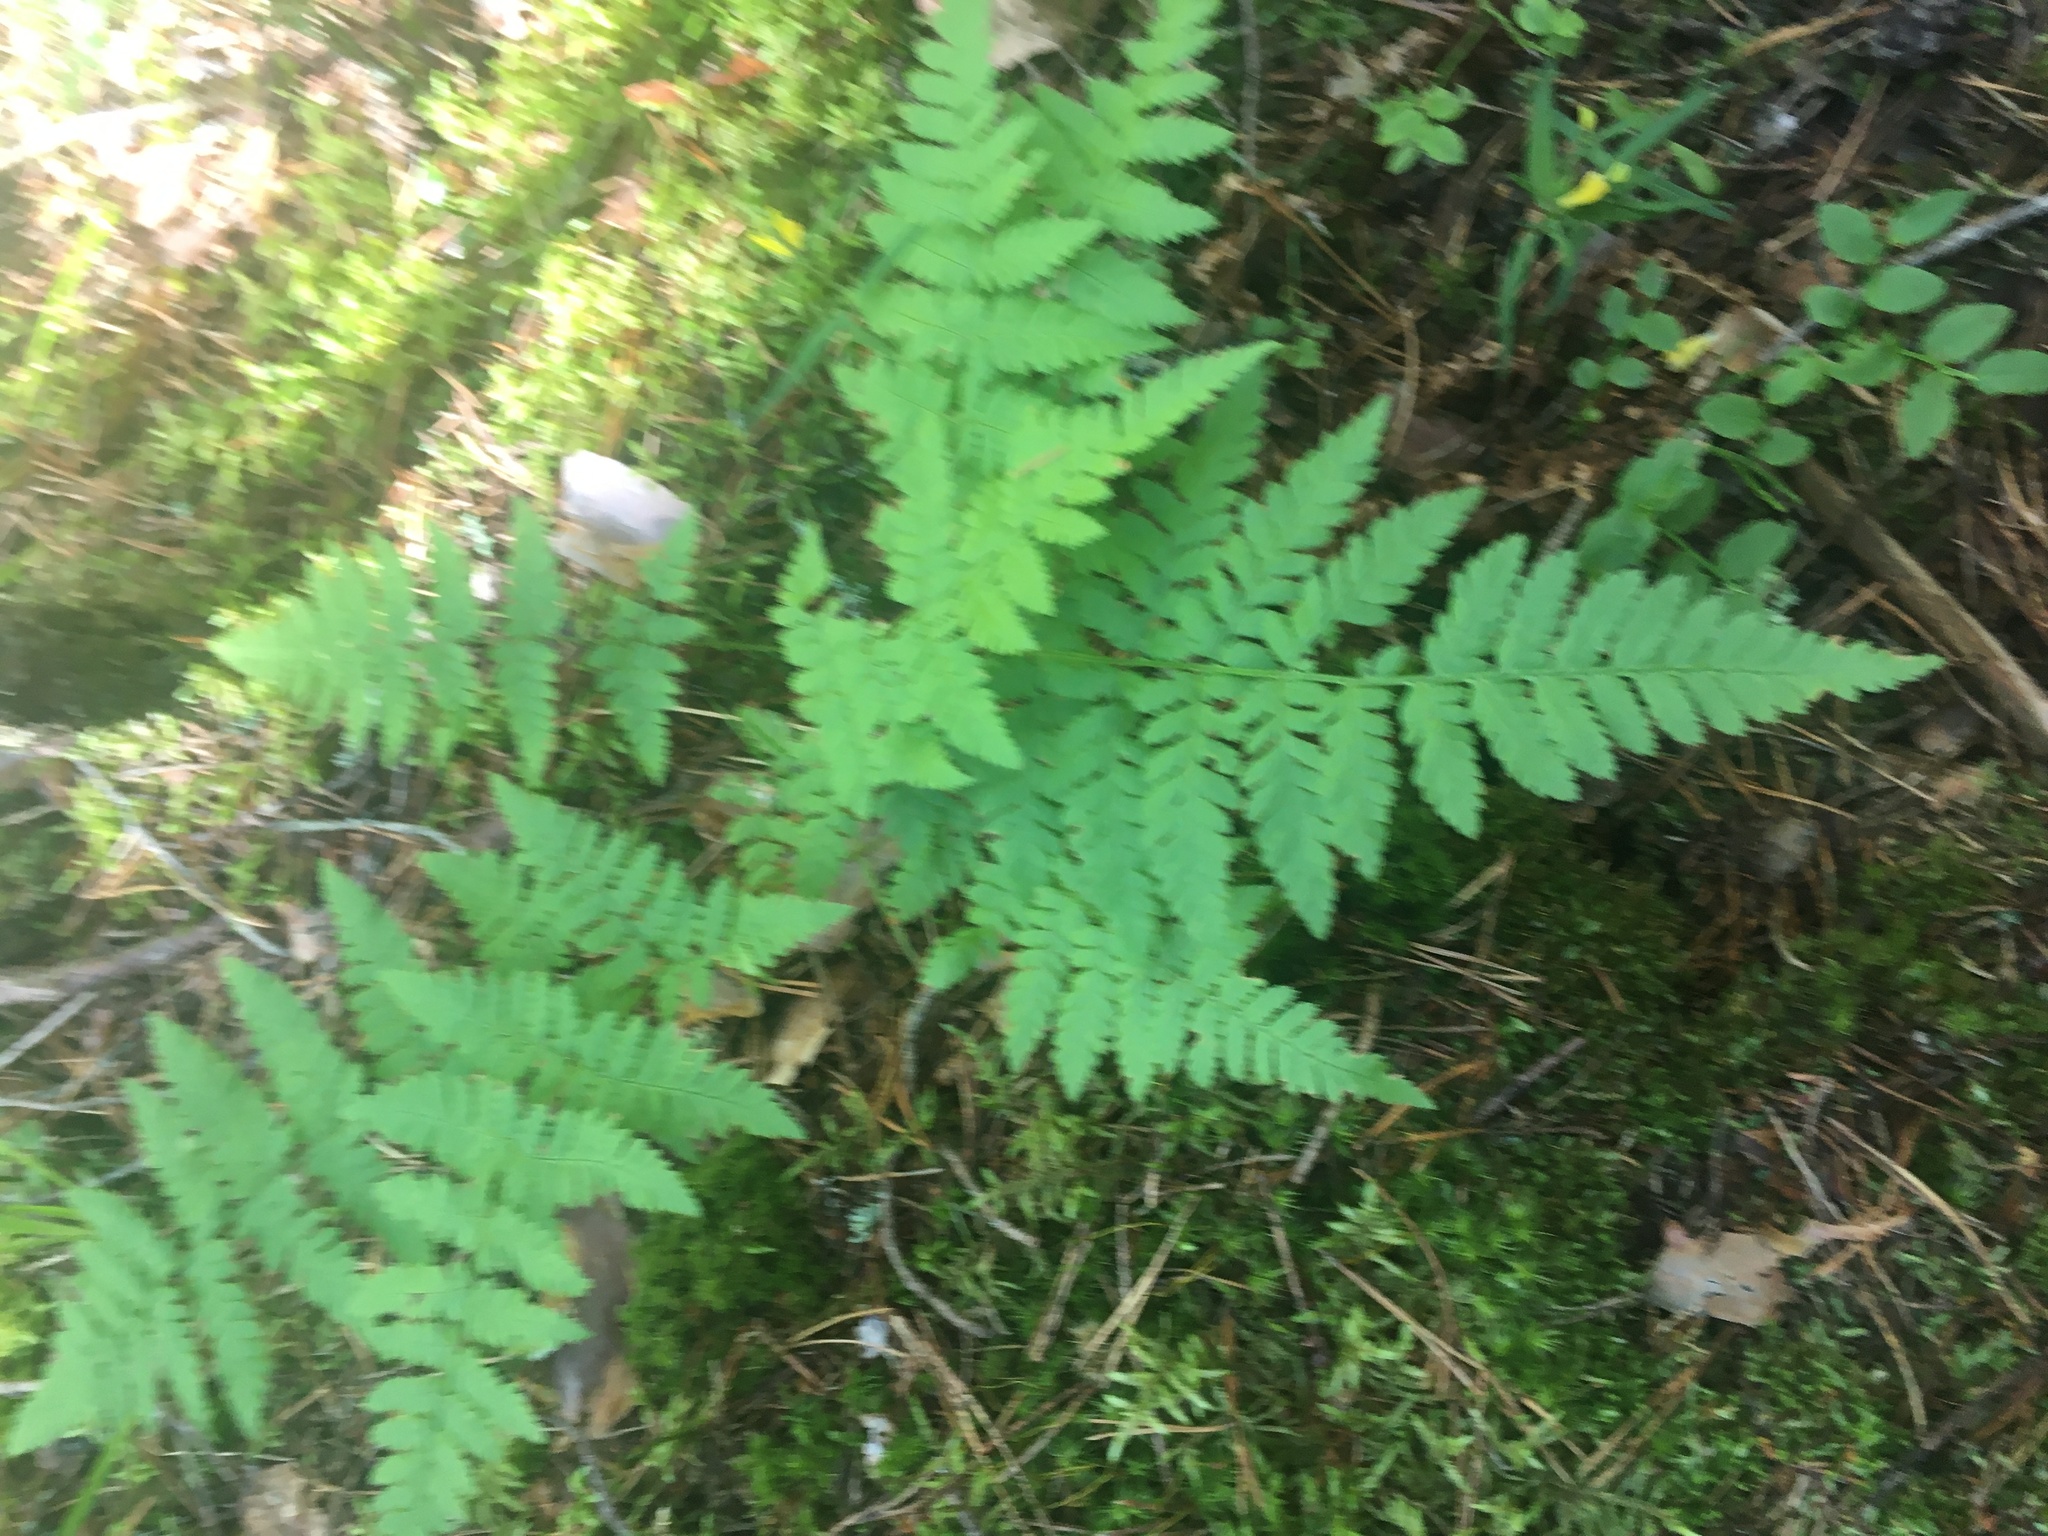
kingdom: Plantae
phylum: Tracheophyta
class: Polypodiopsida
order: Polypodiales
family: Dryopteridaceae
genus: Dryopteris
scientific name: Dryopteris carthusiana
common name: Narrow buckler-fern
